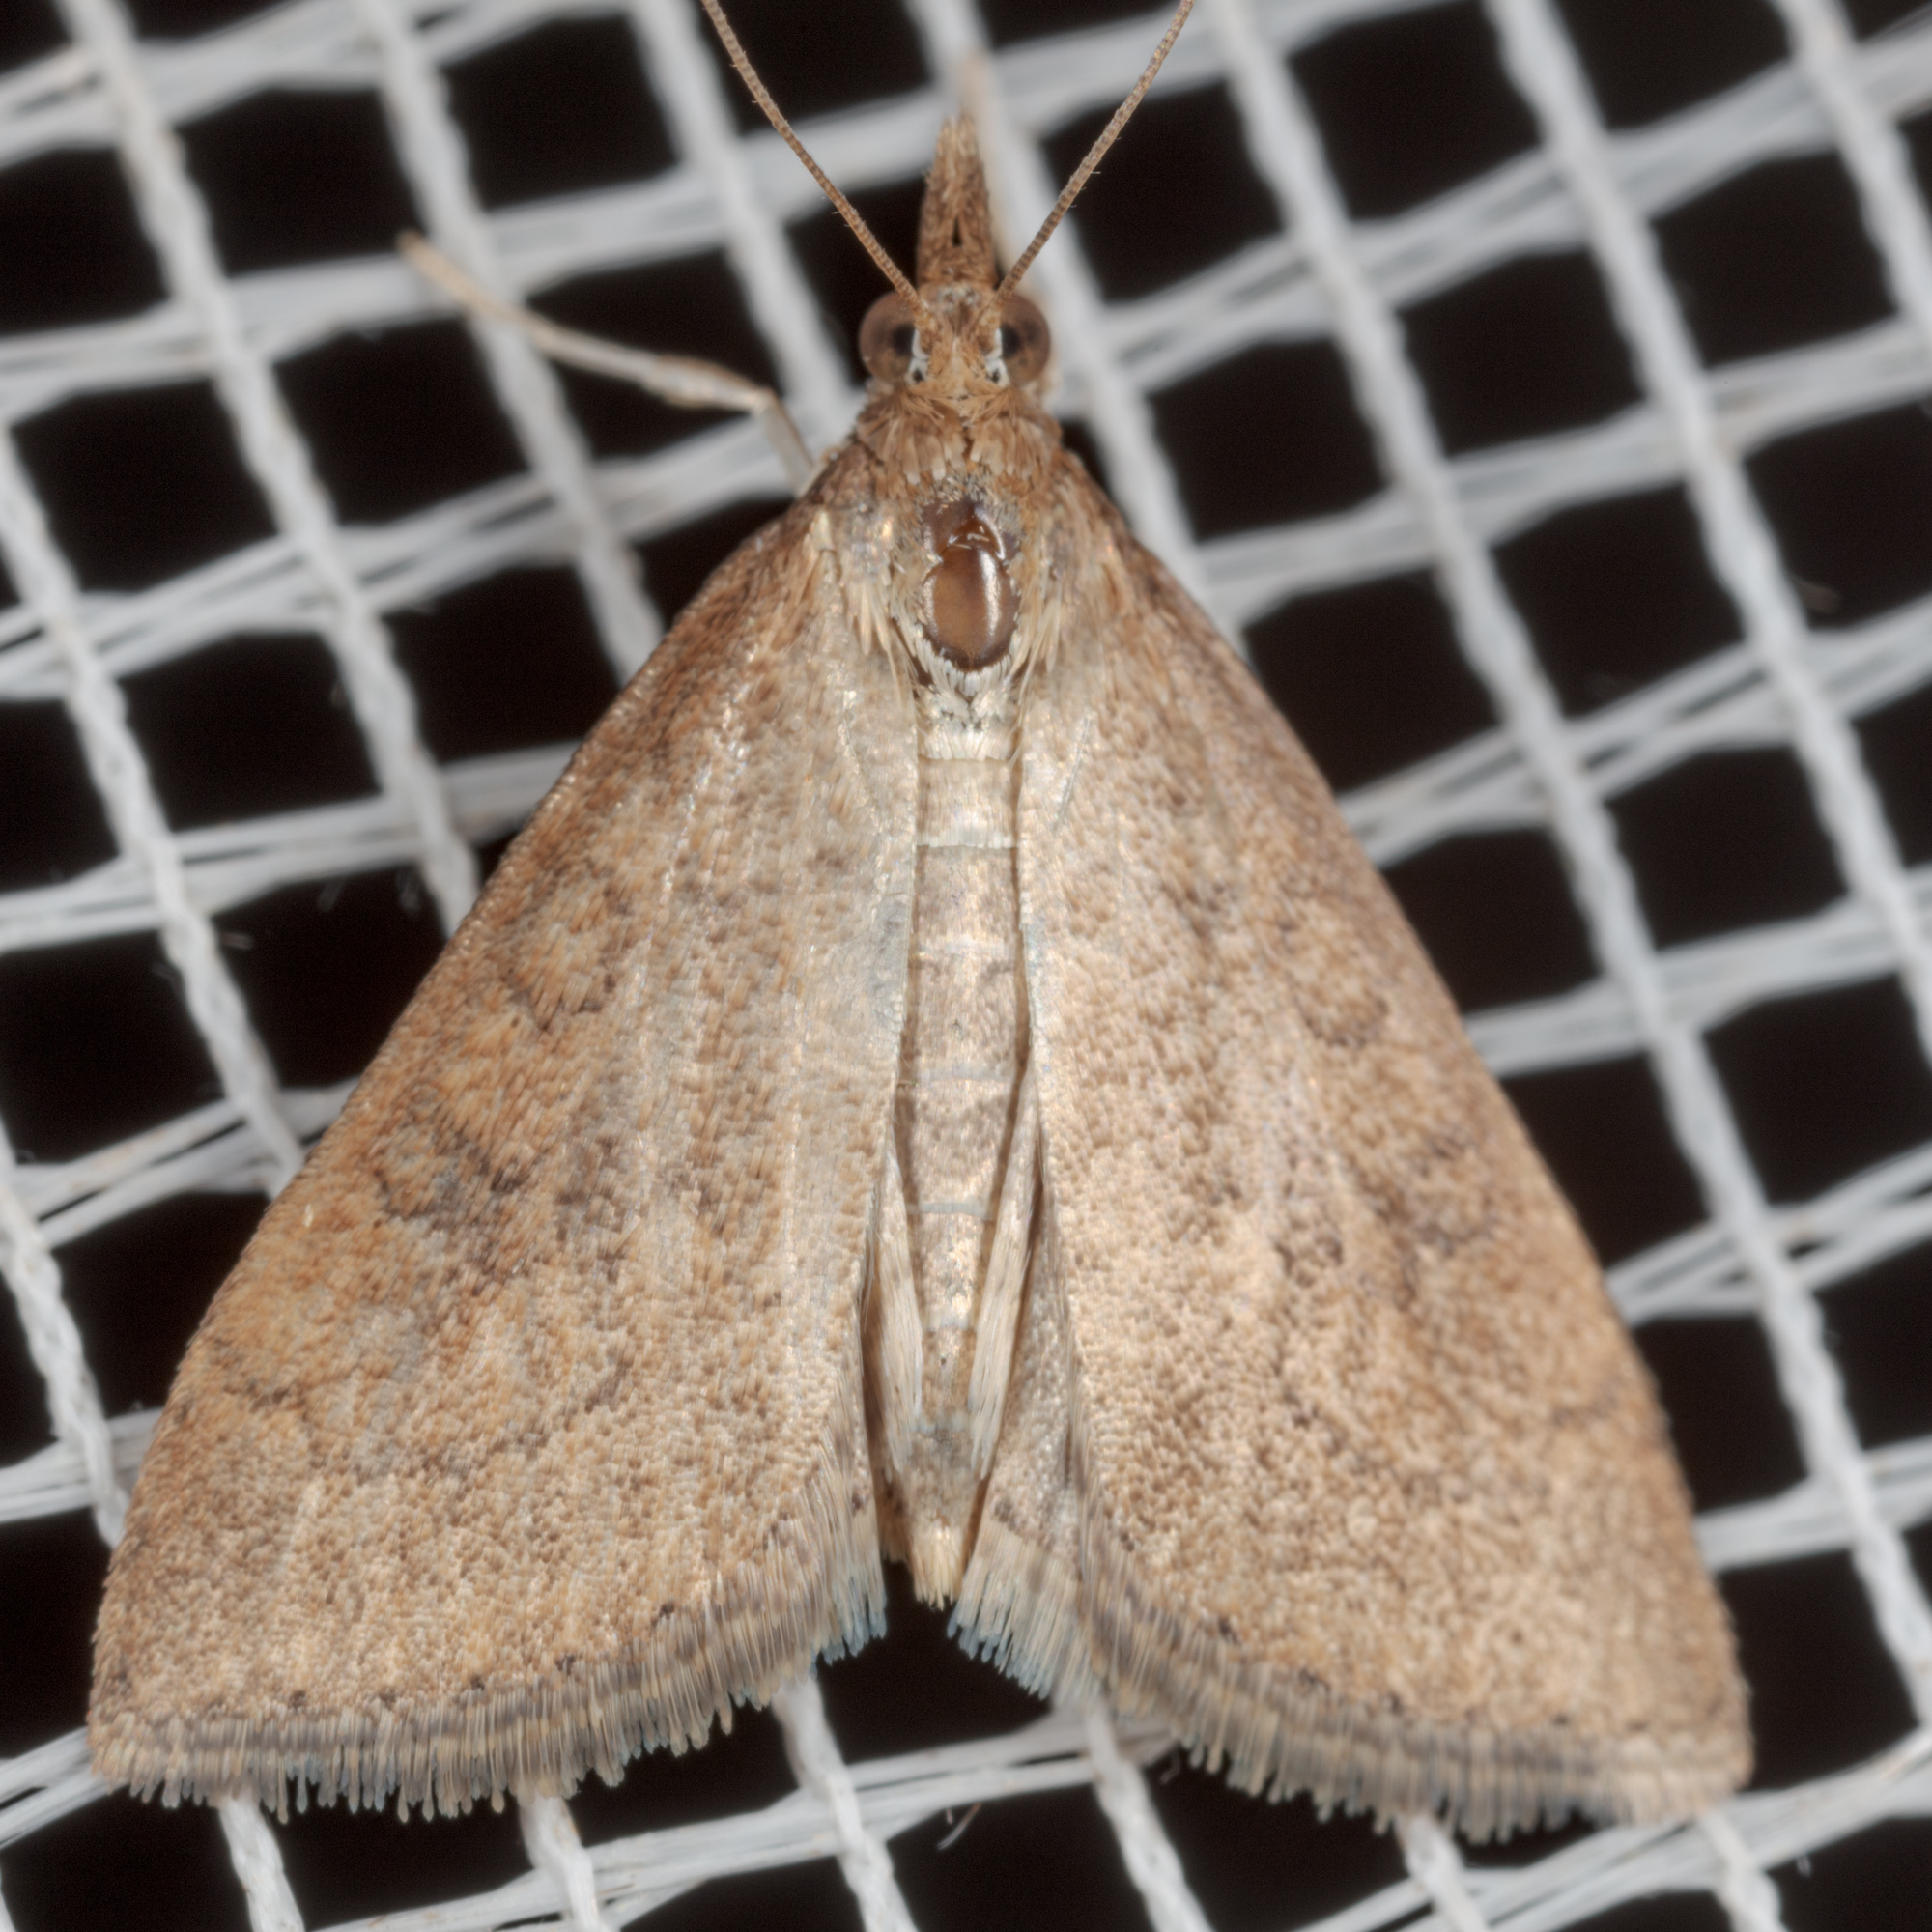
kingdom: Animalia
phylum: Arthropoda
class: Insecta
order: Lepidoptera
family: Crambidae
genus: Udea
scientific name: Udea rubigalis
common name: Celery leaftier moth
